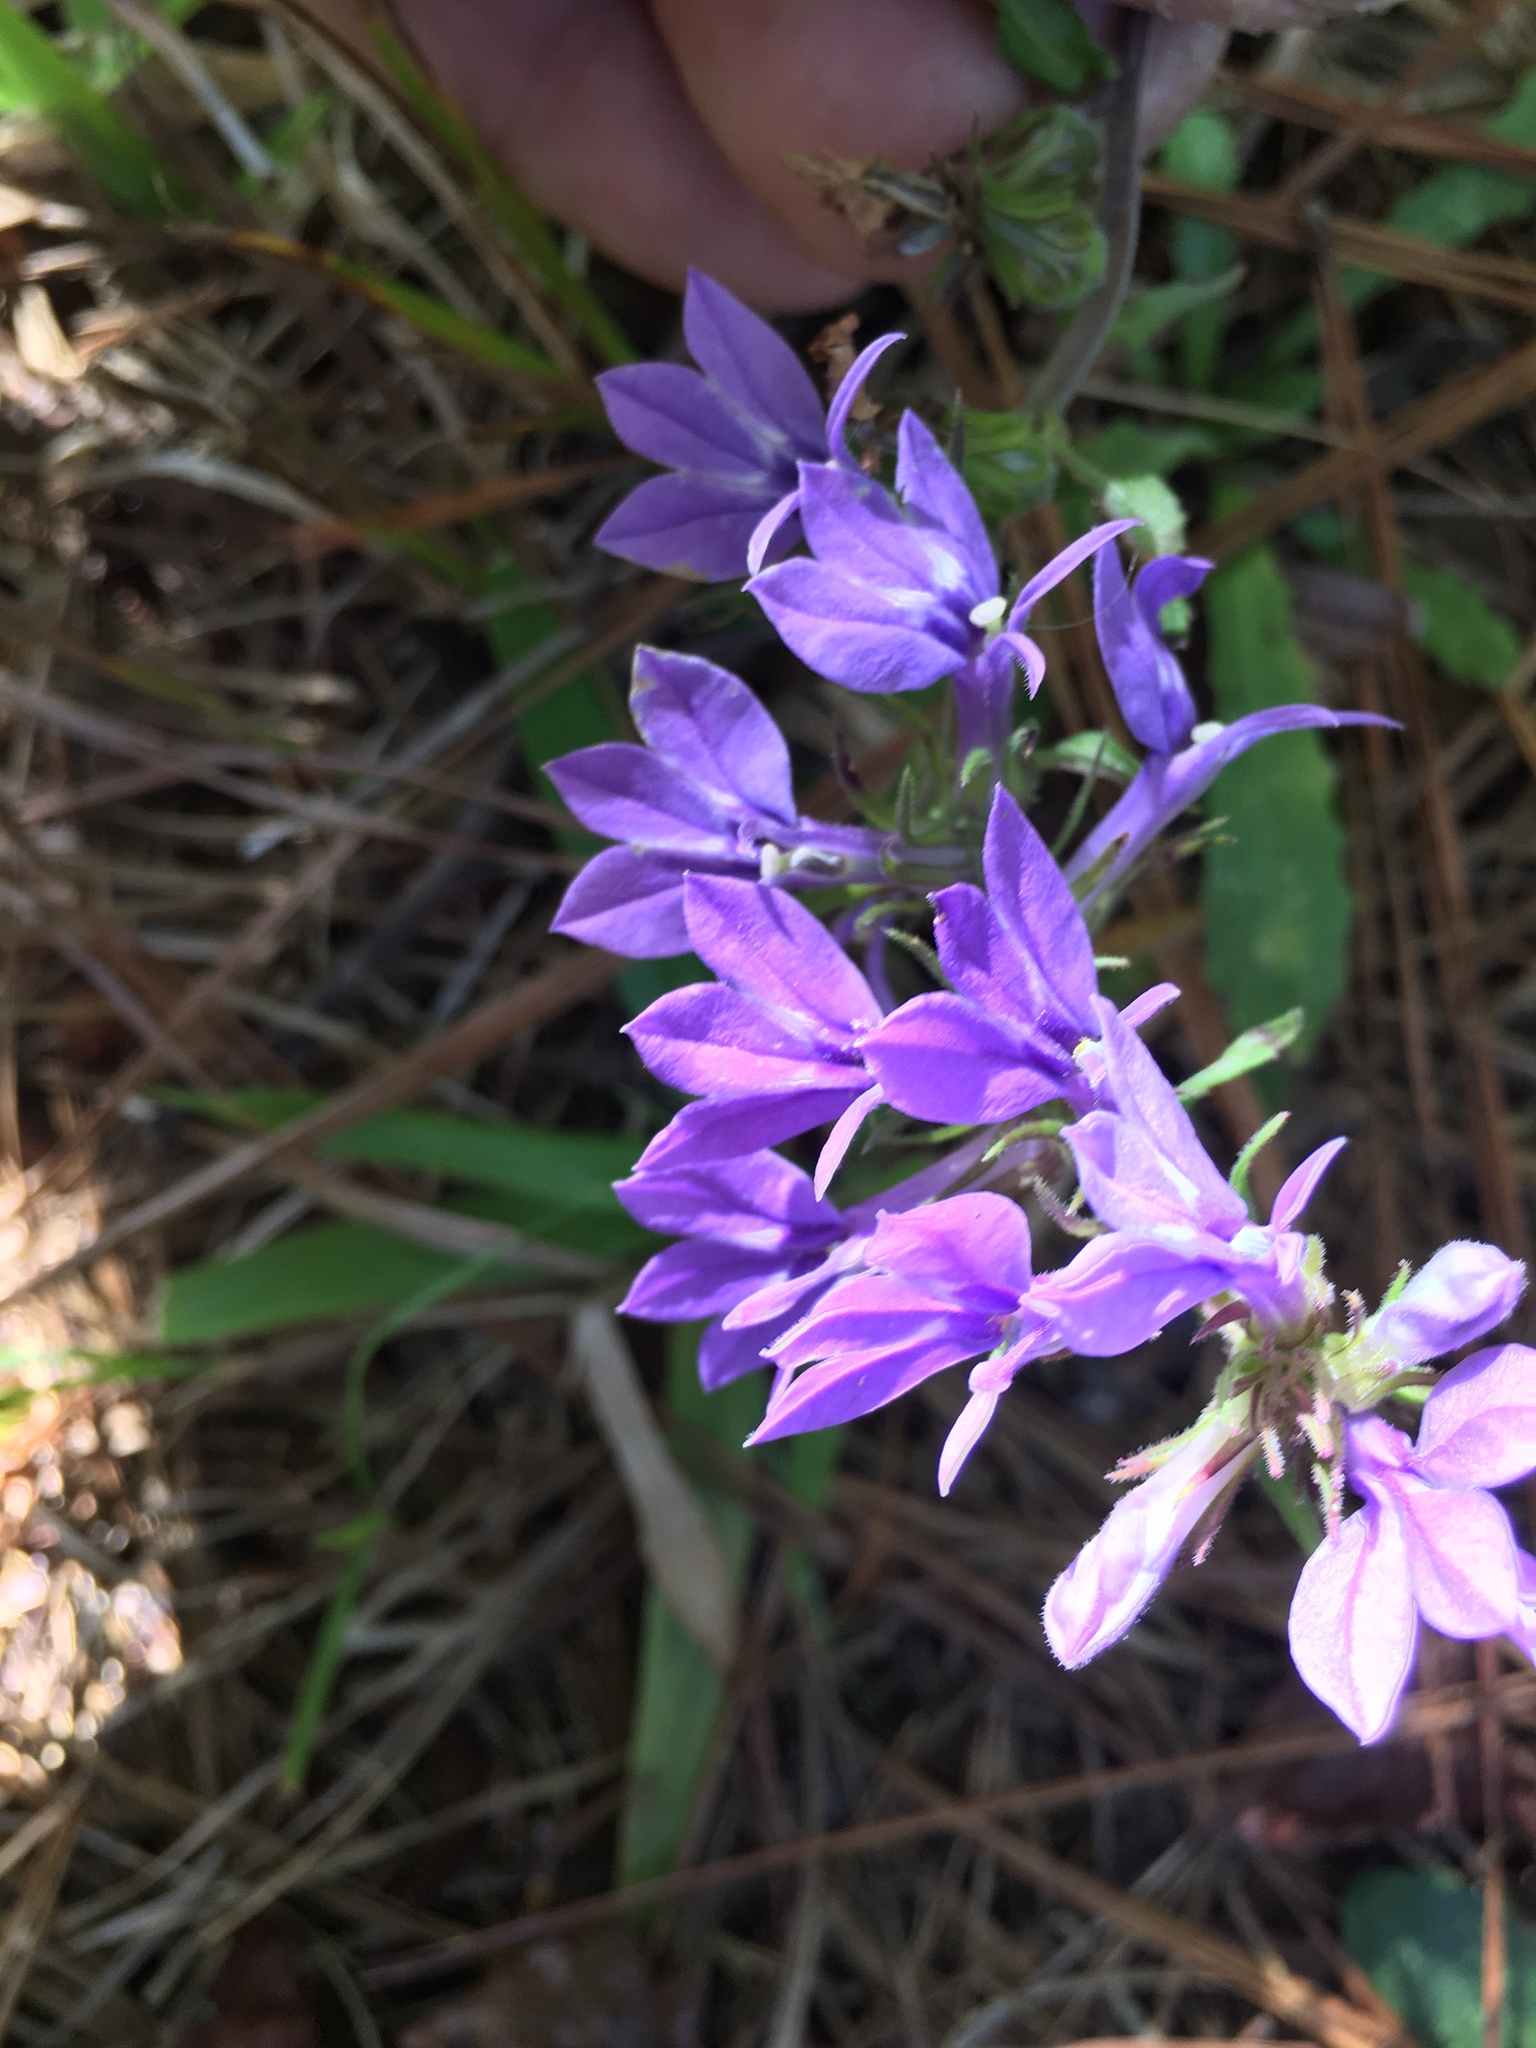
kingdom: Plantae
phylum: Tracheophyta
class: Magnoliopsida
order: Asterales
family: Campanulaceae
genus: Lobelia
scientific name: Lobelia puberula
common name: Purple dewdrop
